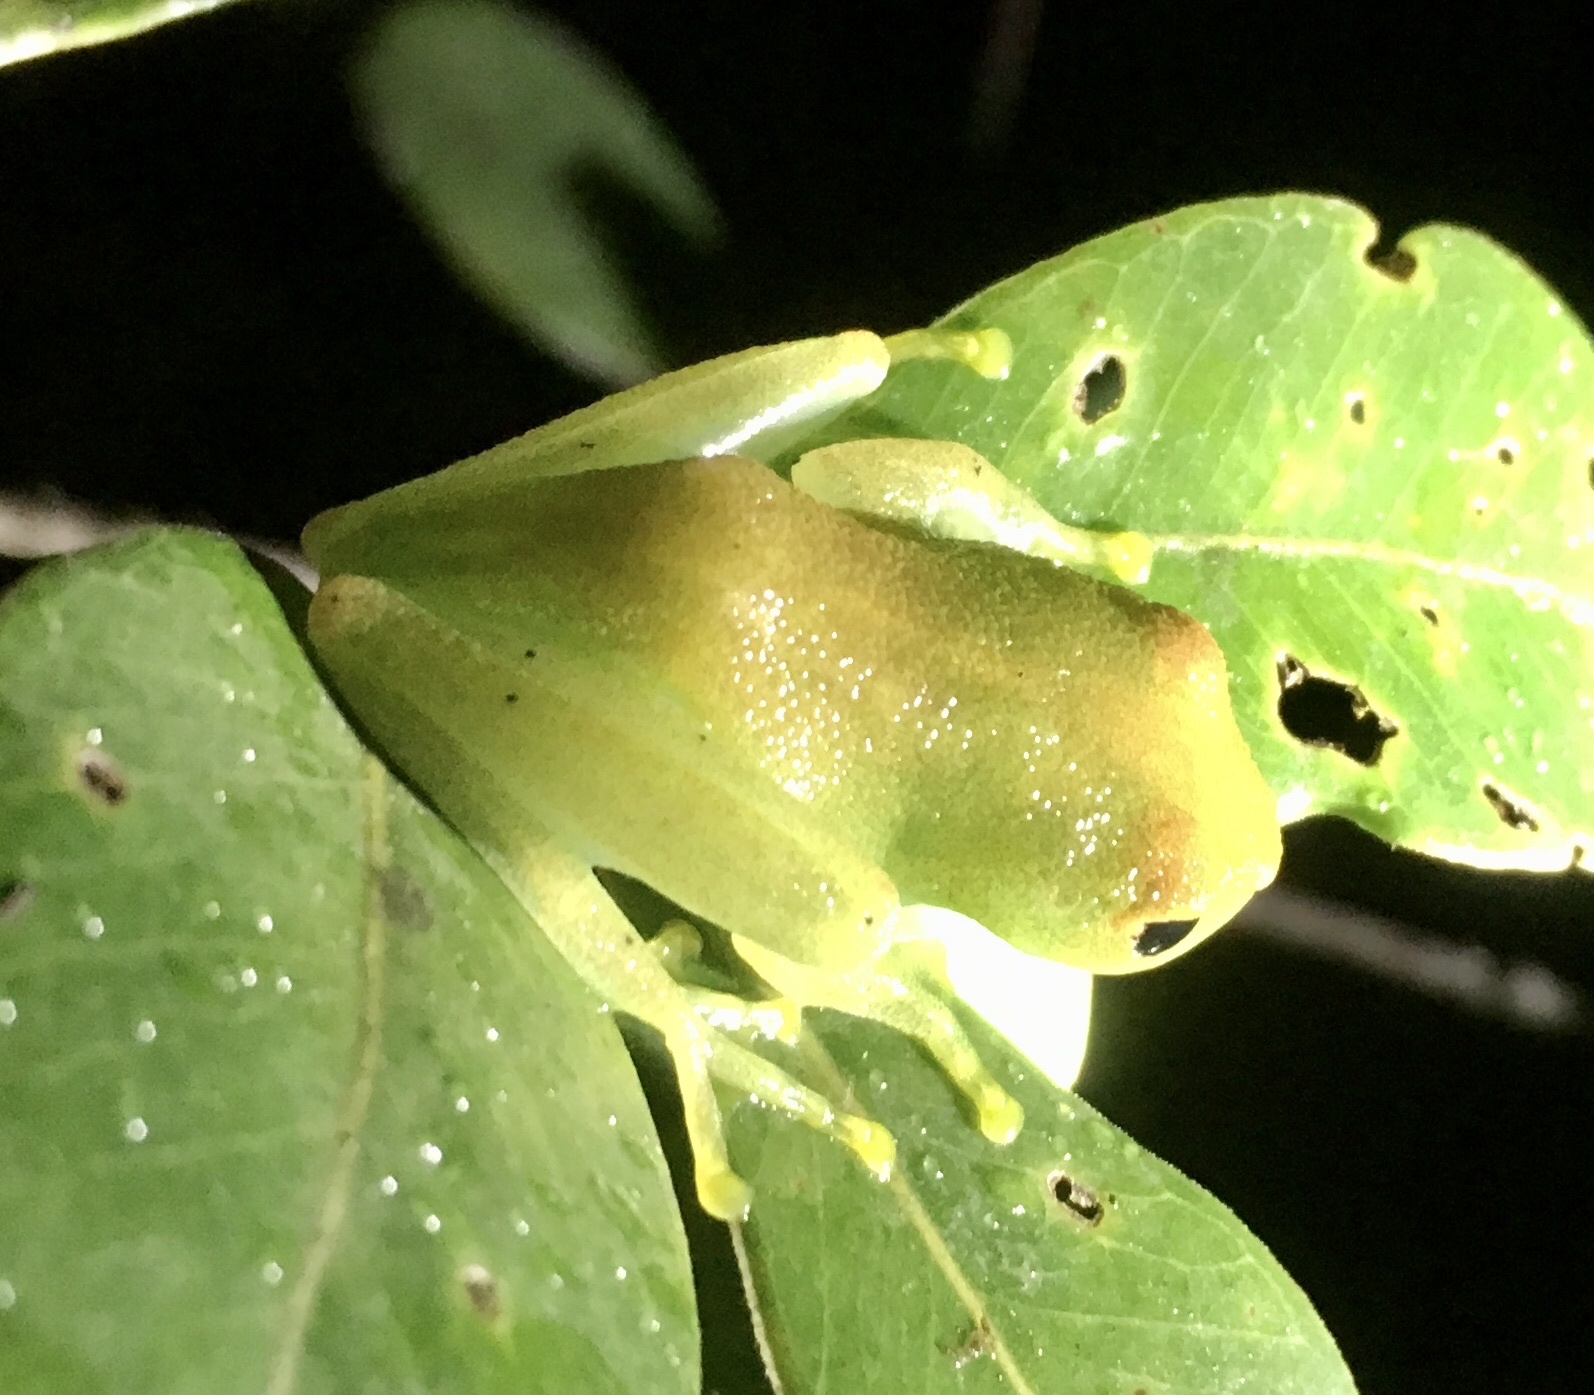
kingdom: Animalia
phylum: Chordata
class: Amphibia
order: Anura
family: Mantellidae
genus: Boophis
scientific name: Boophis viridis
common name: Green bright-eyed frog
